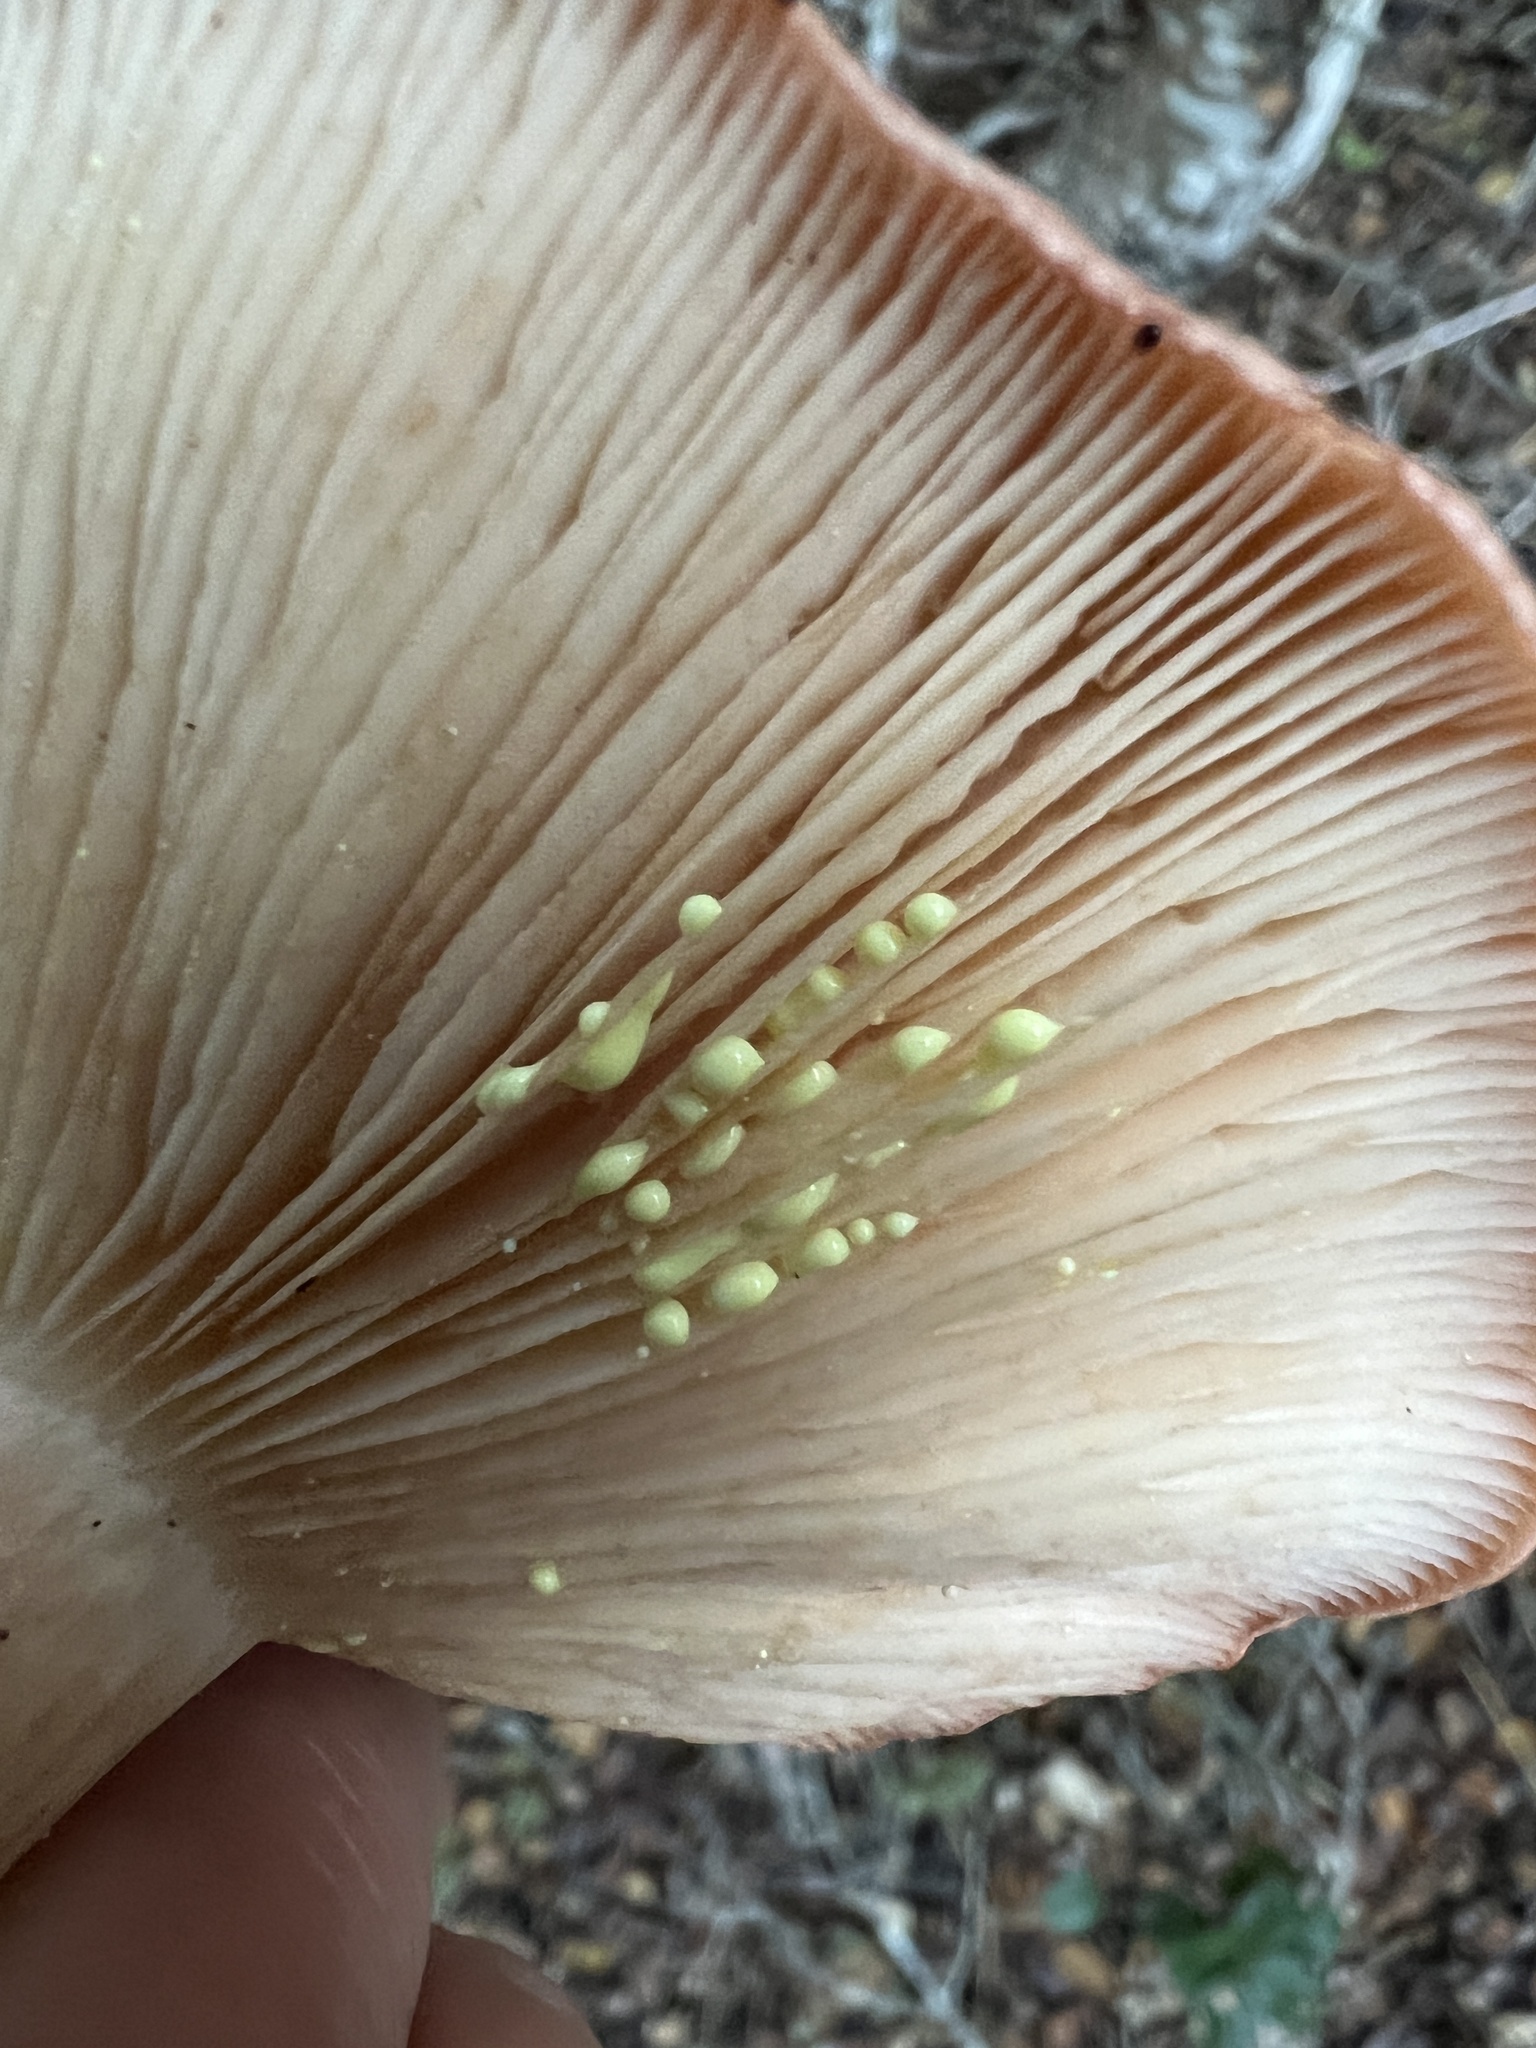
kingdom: Fungi
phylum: Basidiomycota
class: Agaricomycetes
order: Russulales
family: Russulaceae
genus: Lactarius
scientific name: Lactarius xanthogalactus
